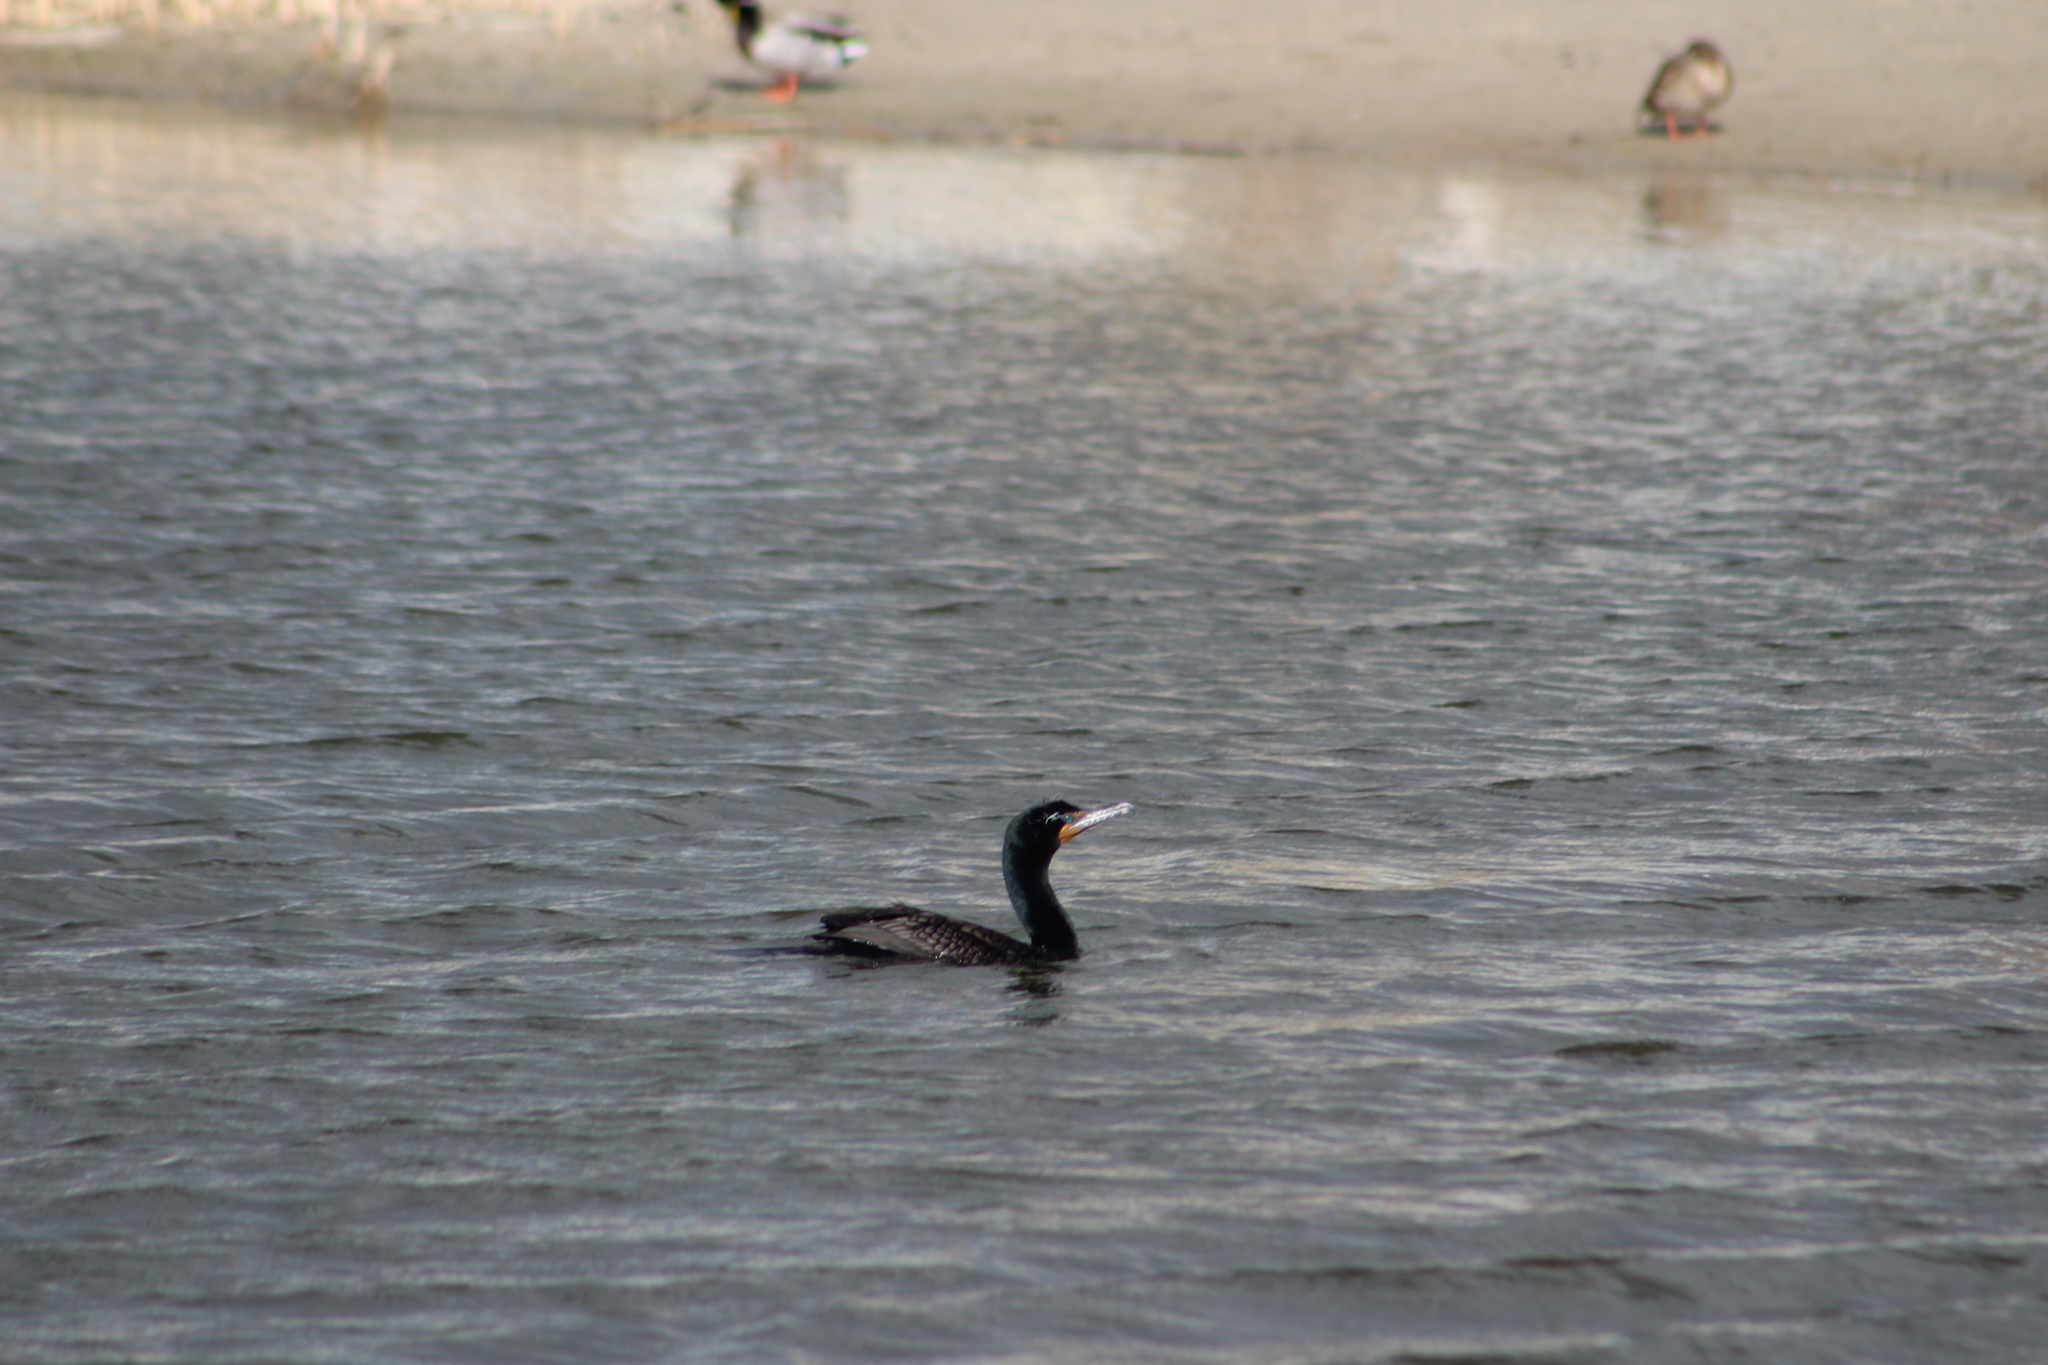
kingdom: Animalia
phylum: Chordata
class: Aves
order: Suliformes
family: Phalacrocoracidae
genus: Phalacrocorax
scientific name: Phalacrocorax auritus
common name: Double-crested cormorant
